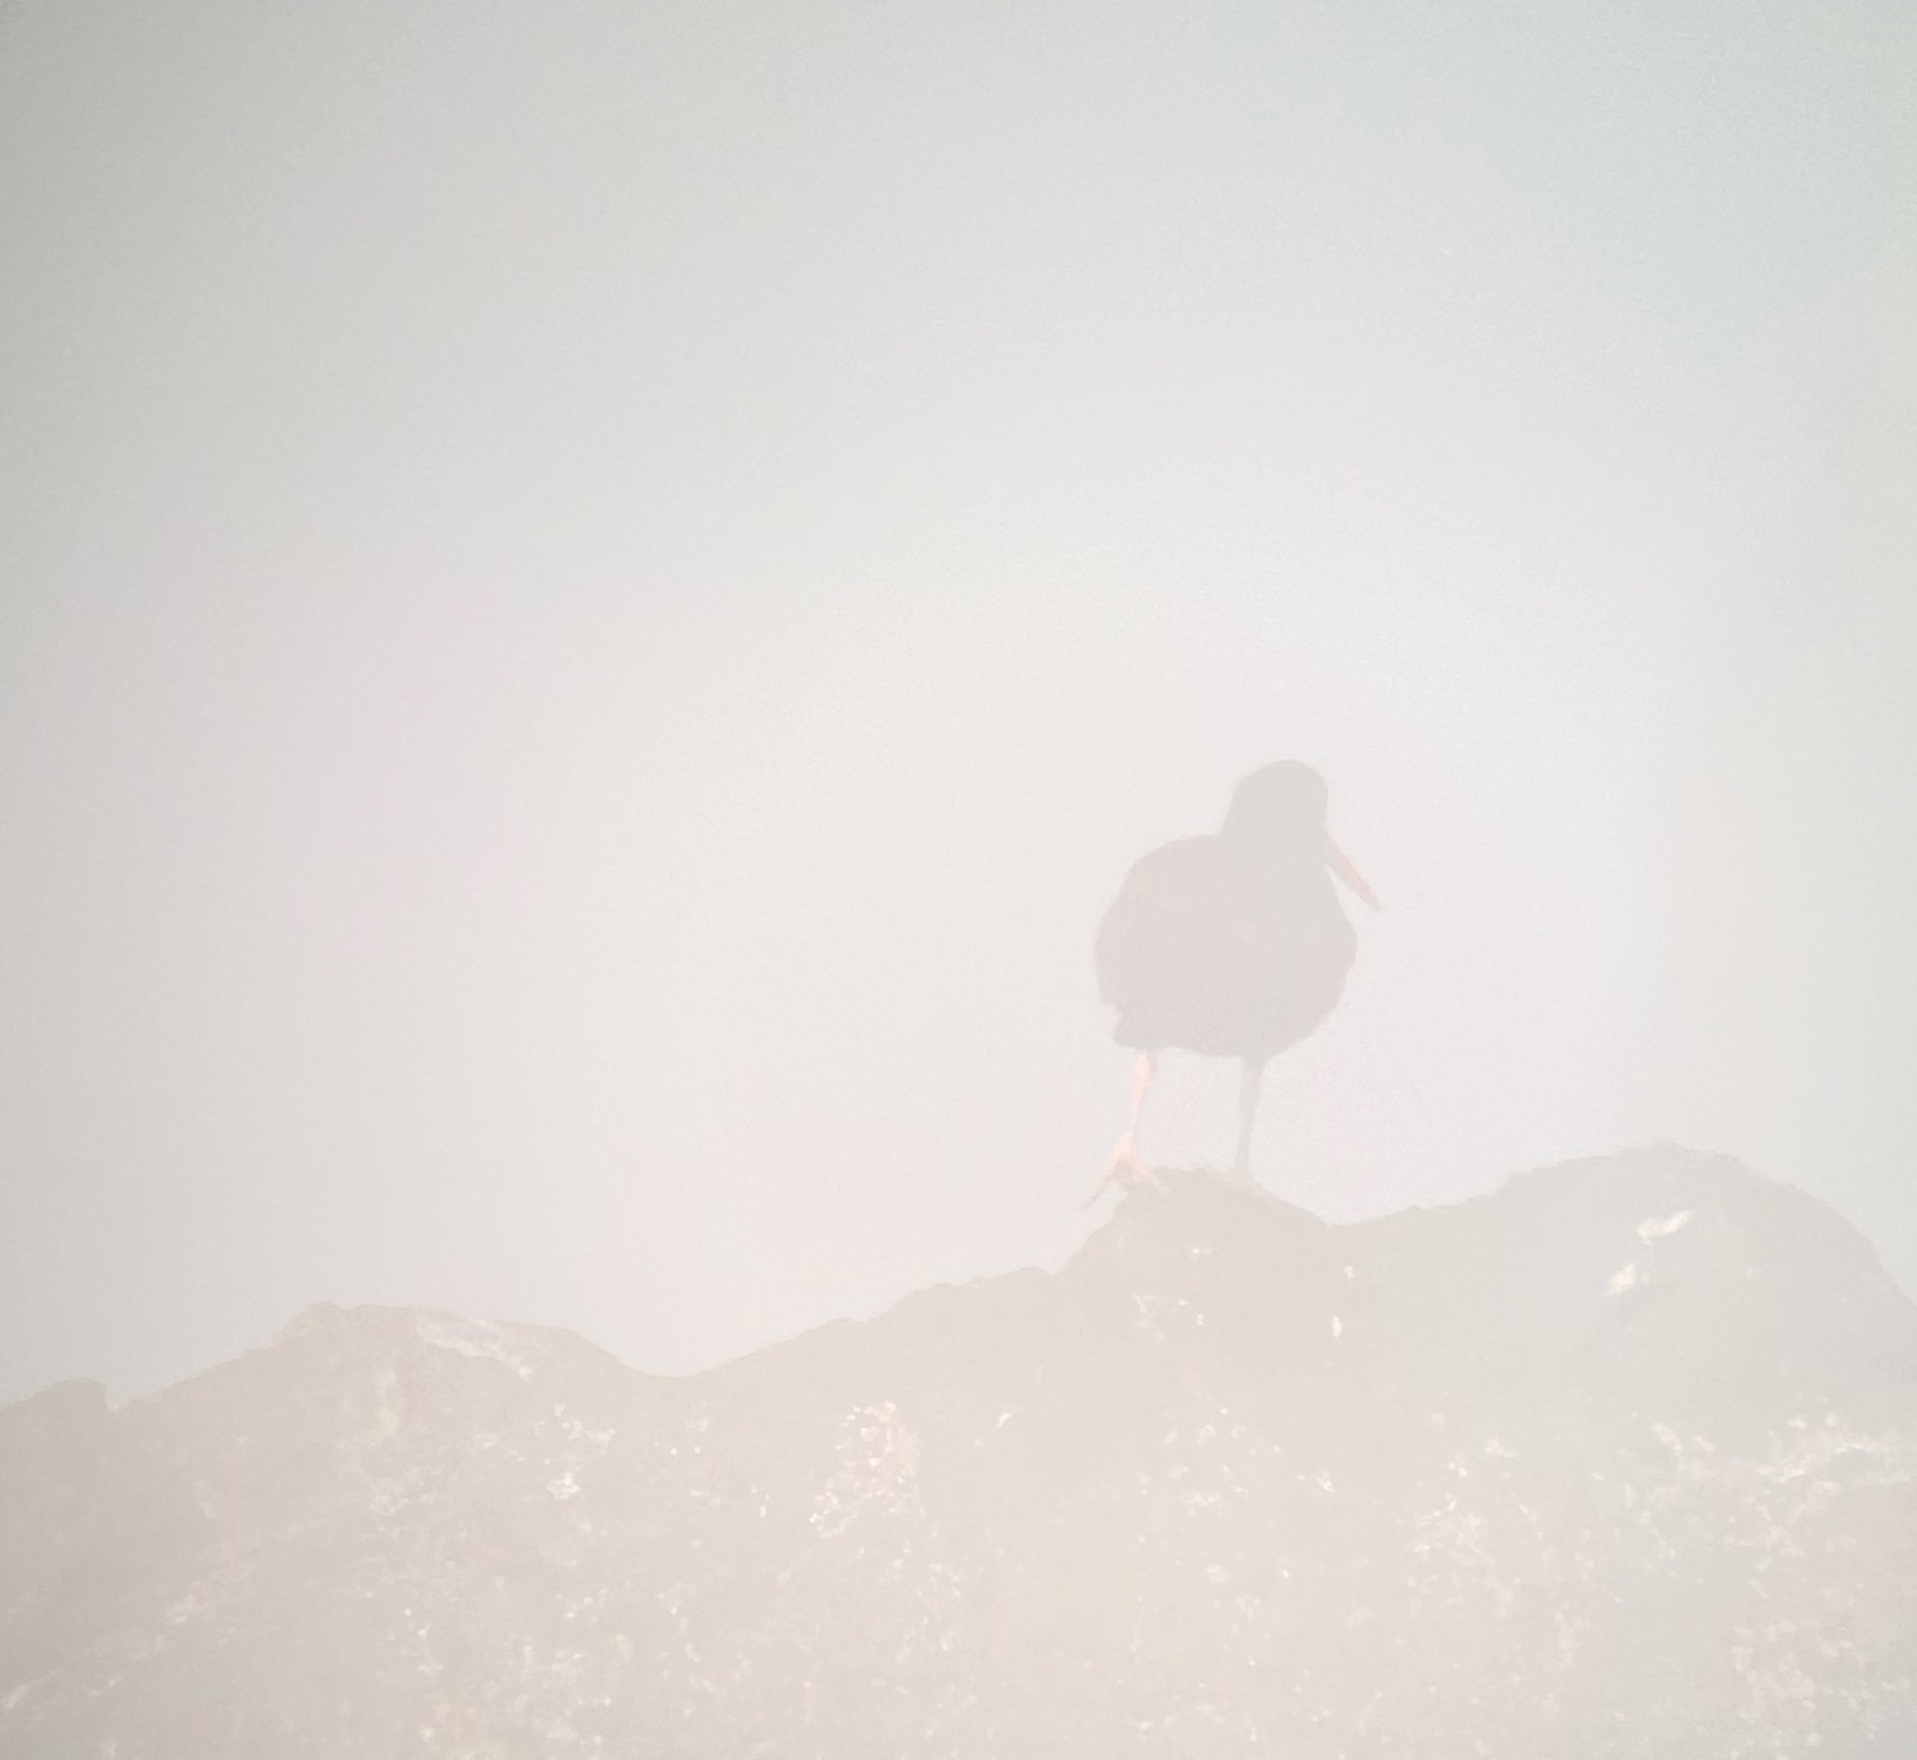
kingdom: Animalia
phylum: Chordata
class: Aves
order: Charadriiformes
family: Haematopodidae
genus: Haematopus
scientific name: Haematopus bachmani
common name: Black oystercatcher
